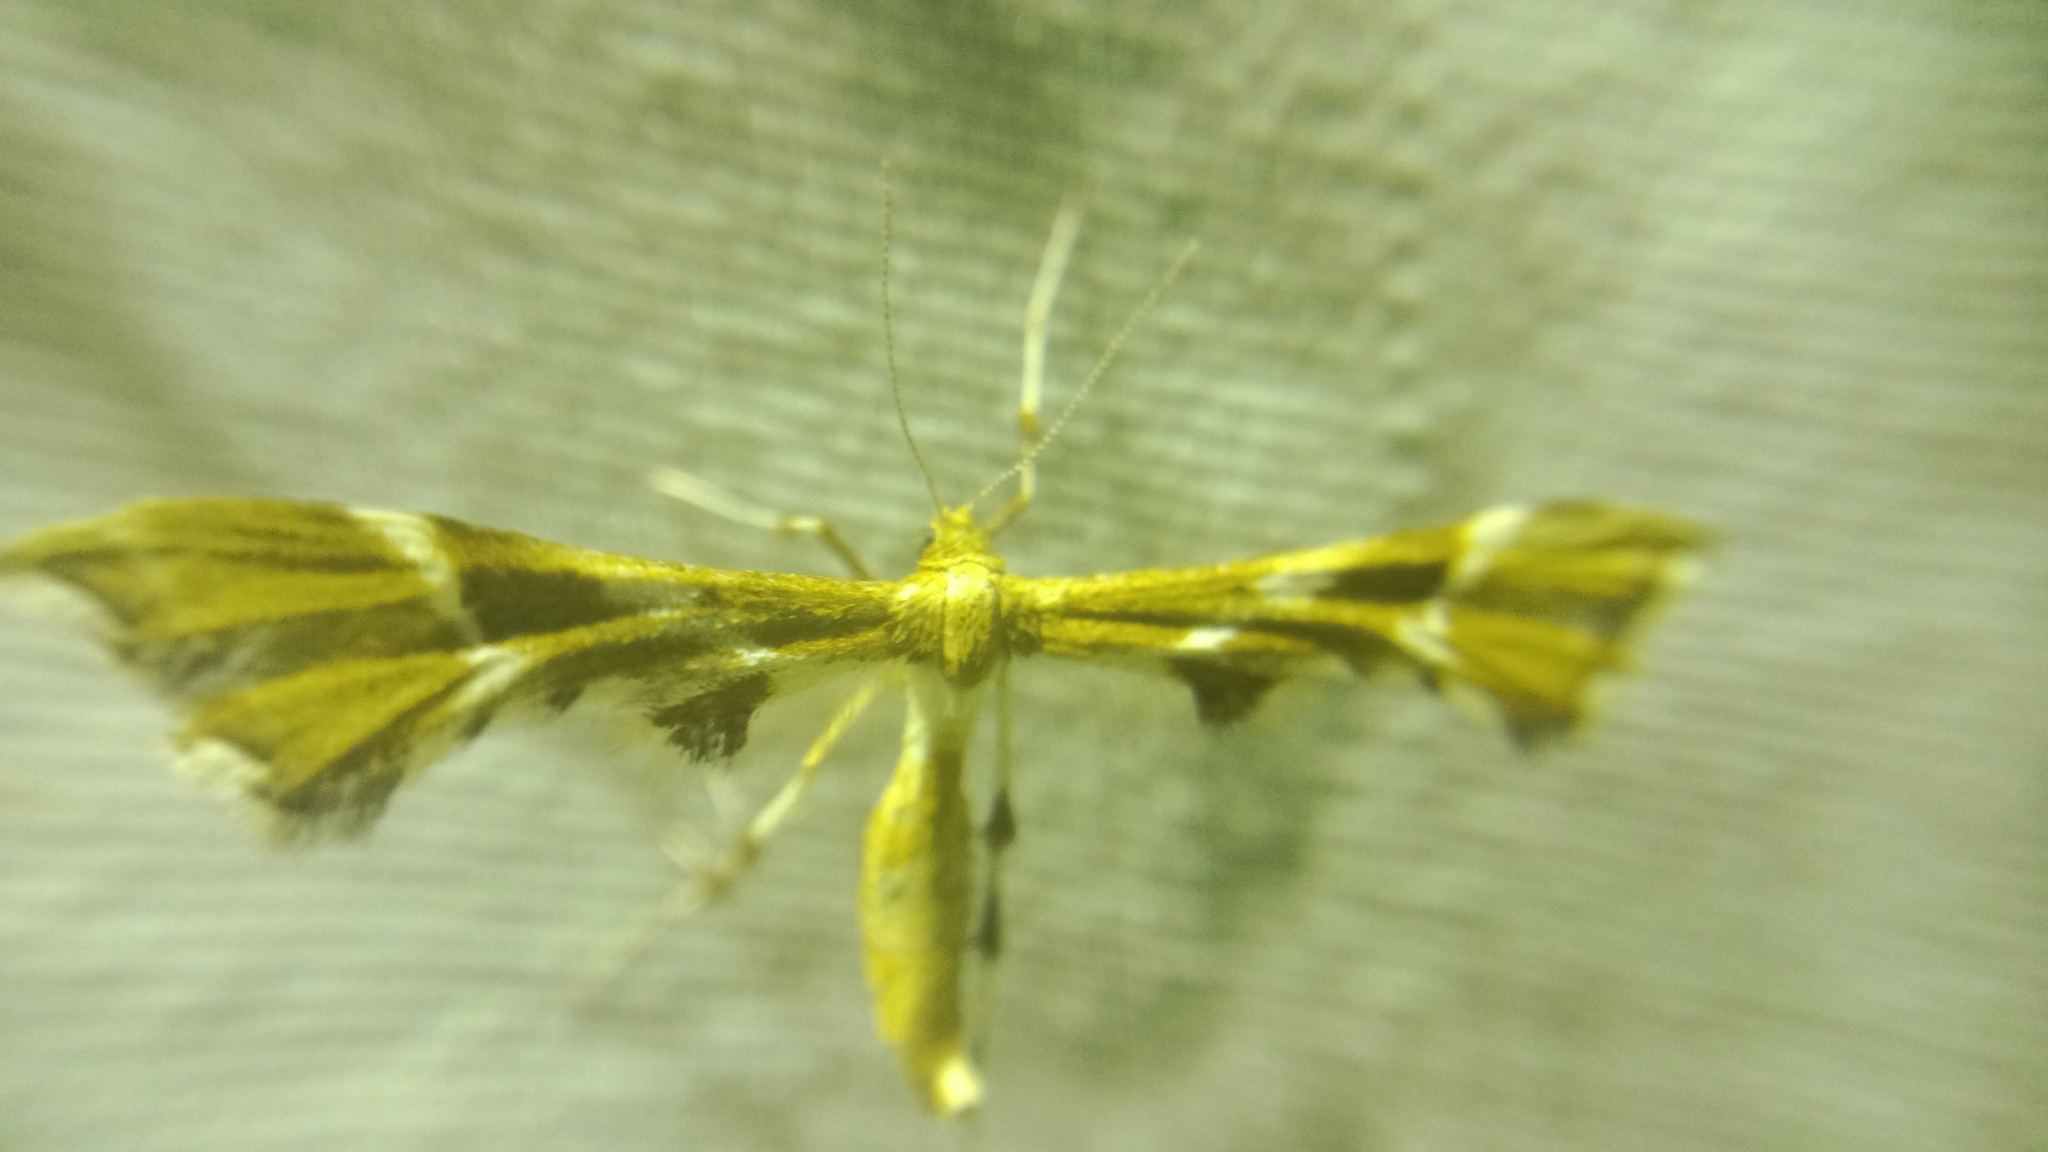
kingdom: Animalia
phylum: Arthropoda
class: Insecta
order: Lepidoptera
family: Pterophoridae
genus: Cnaemidophorus
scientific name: Cnaemidophorus rhododactyla
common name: Rose plume
